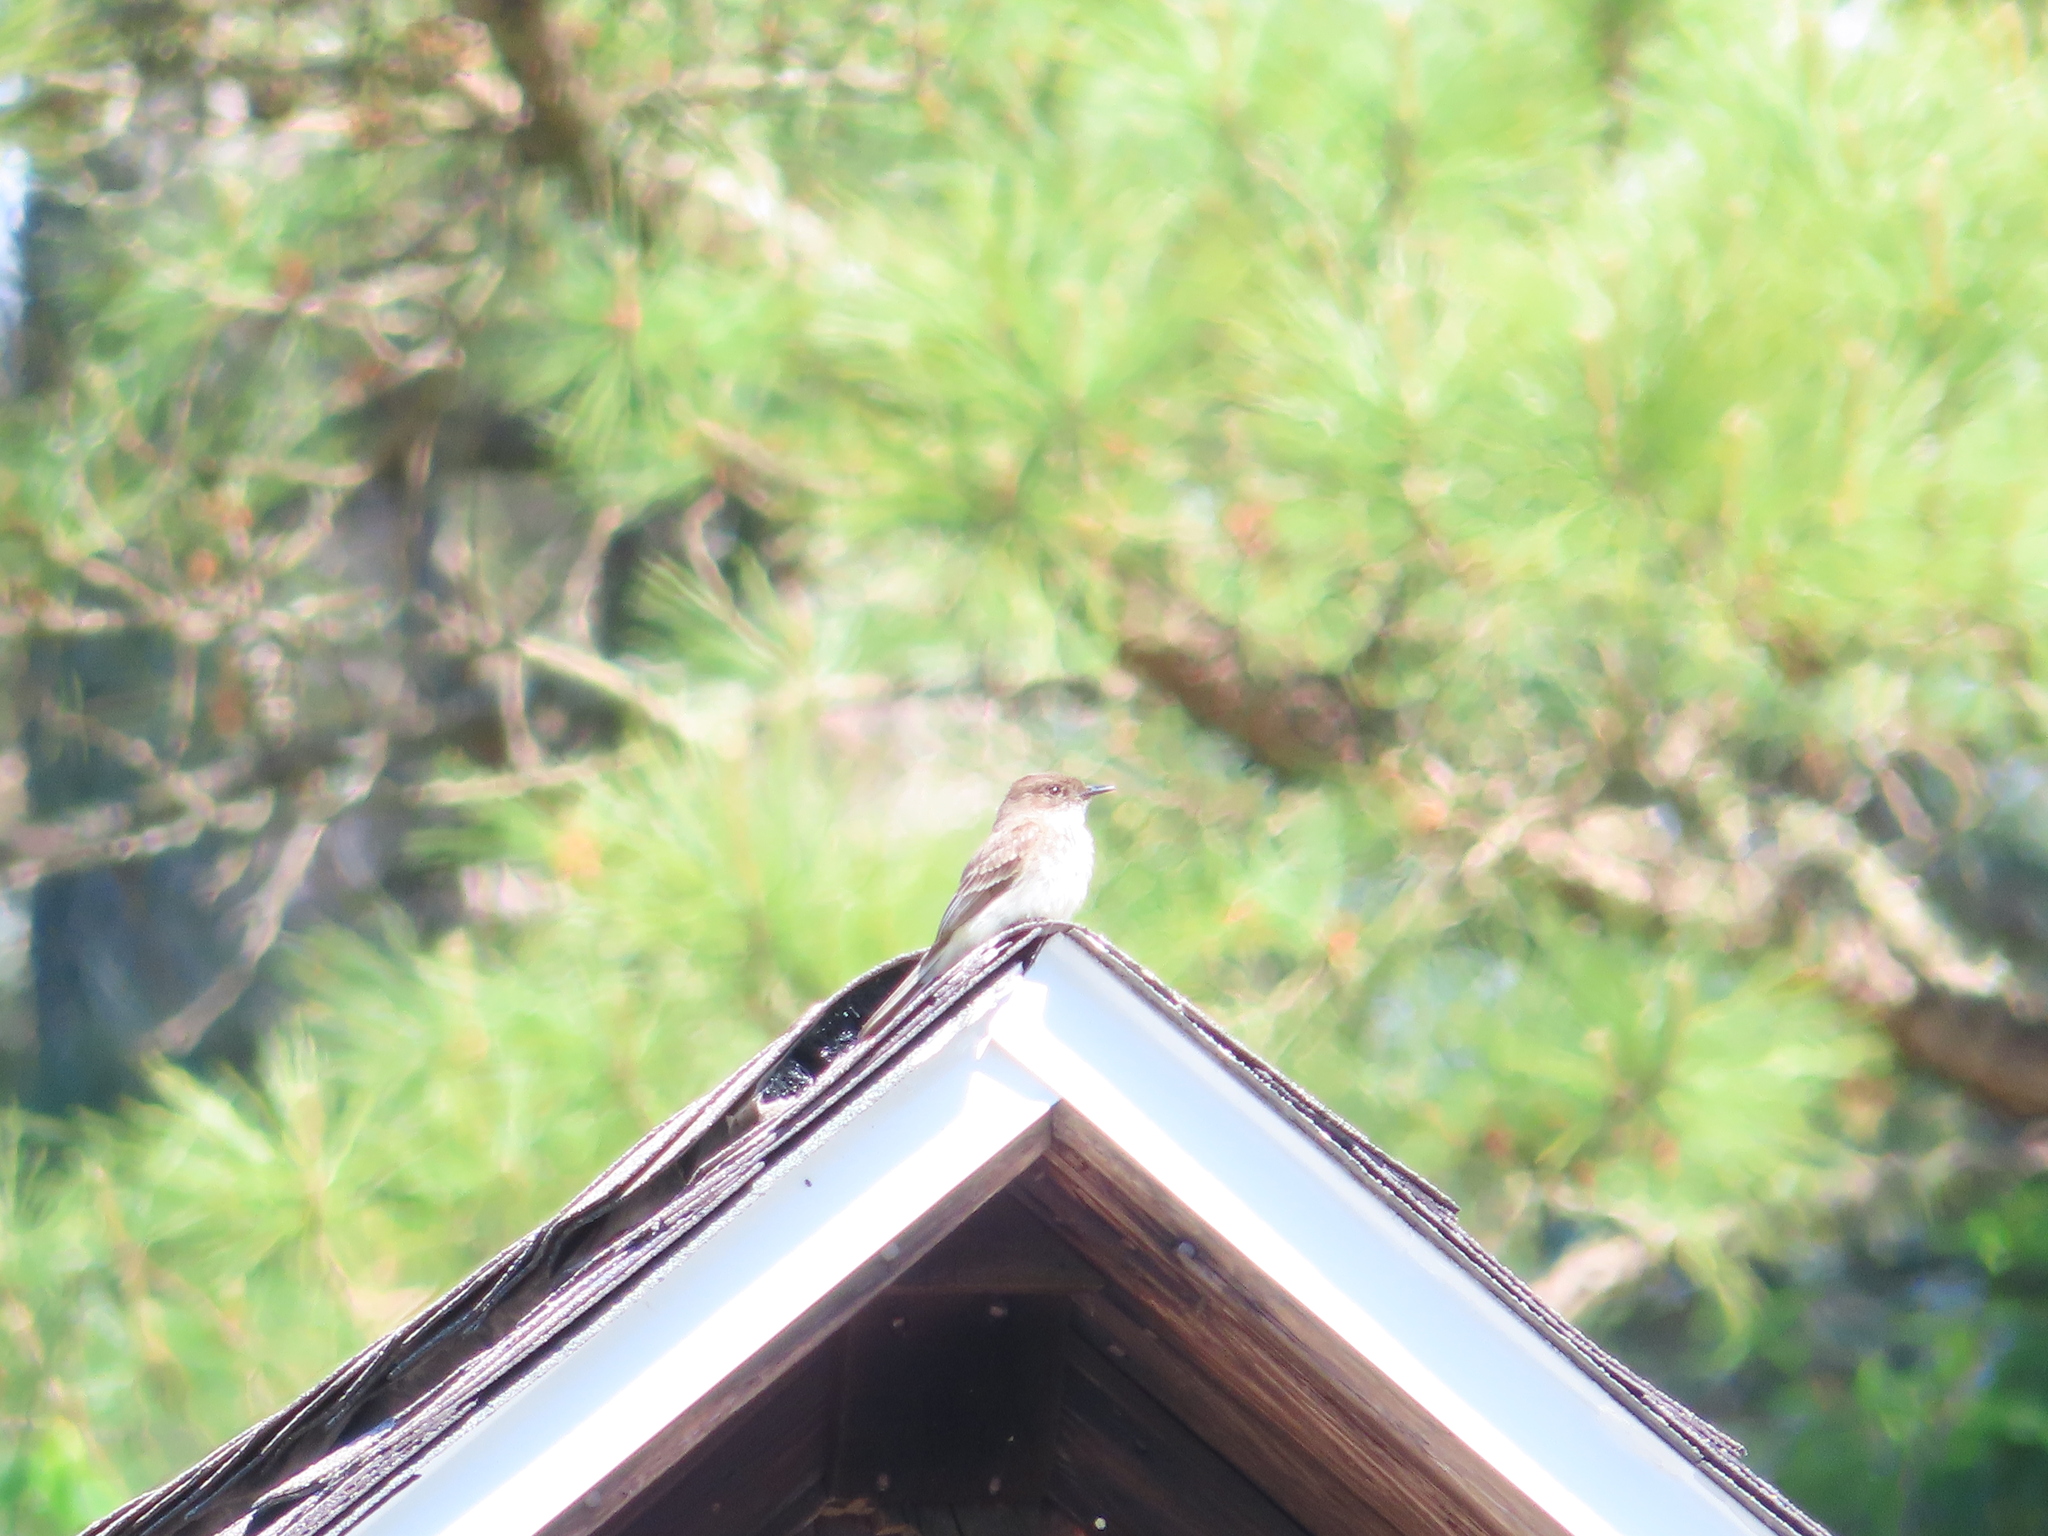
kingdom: Animalia
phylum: Chordata
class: Aves
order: Passeriformes
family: Tyrannidae
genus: Sayornis
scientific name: Sayornis phoebe
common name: Eastern phoebe
